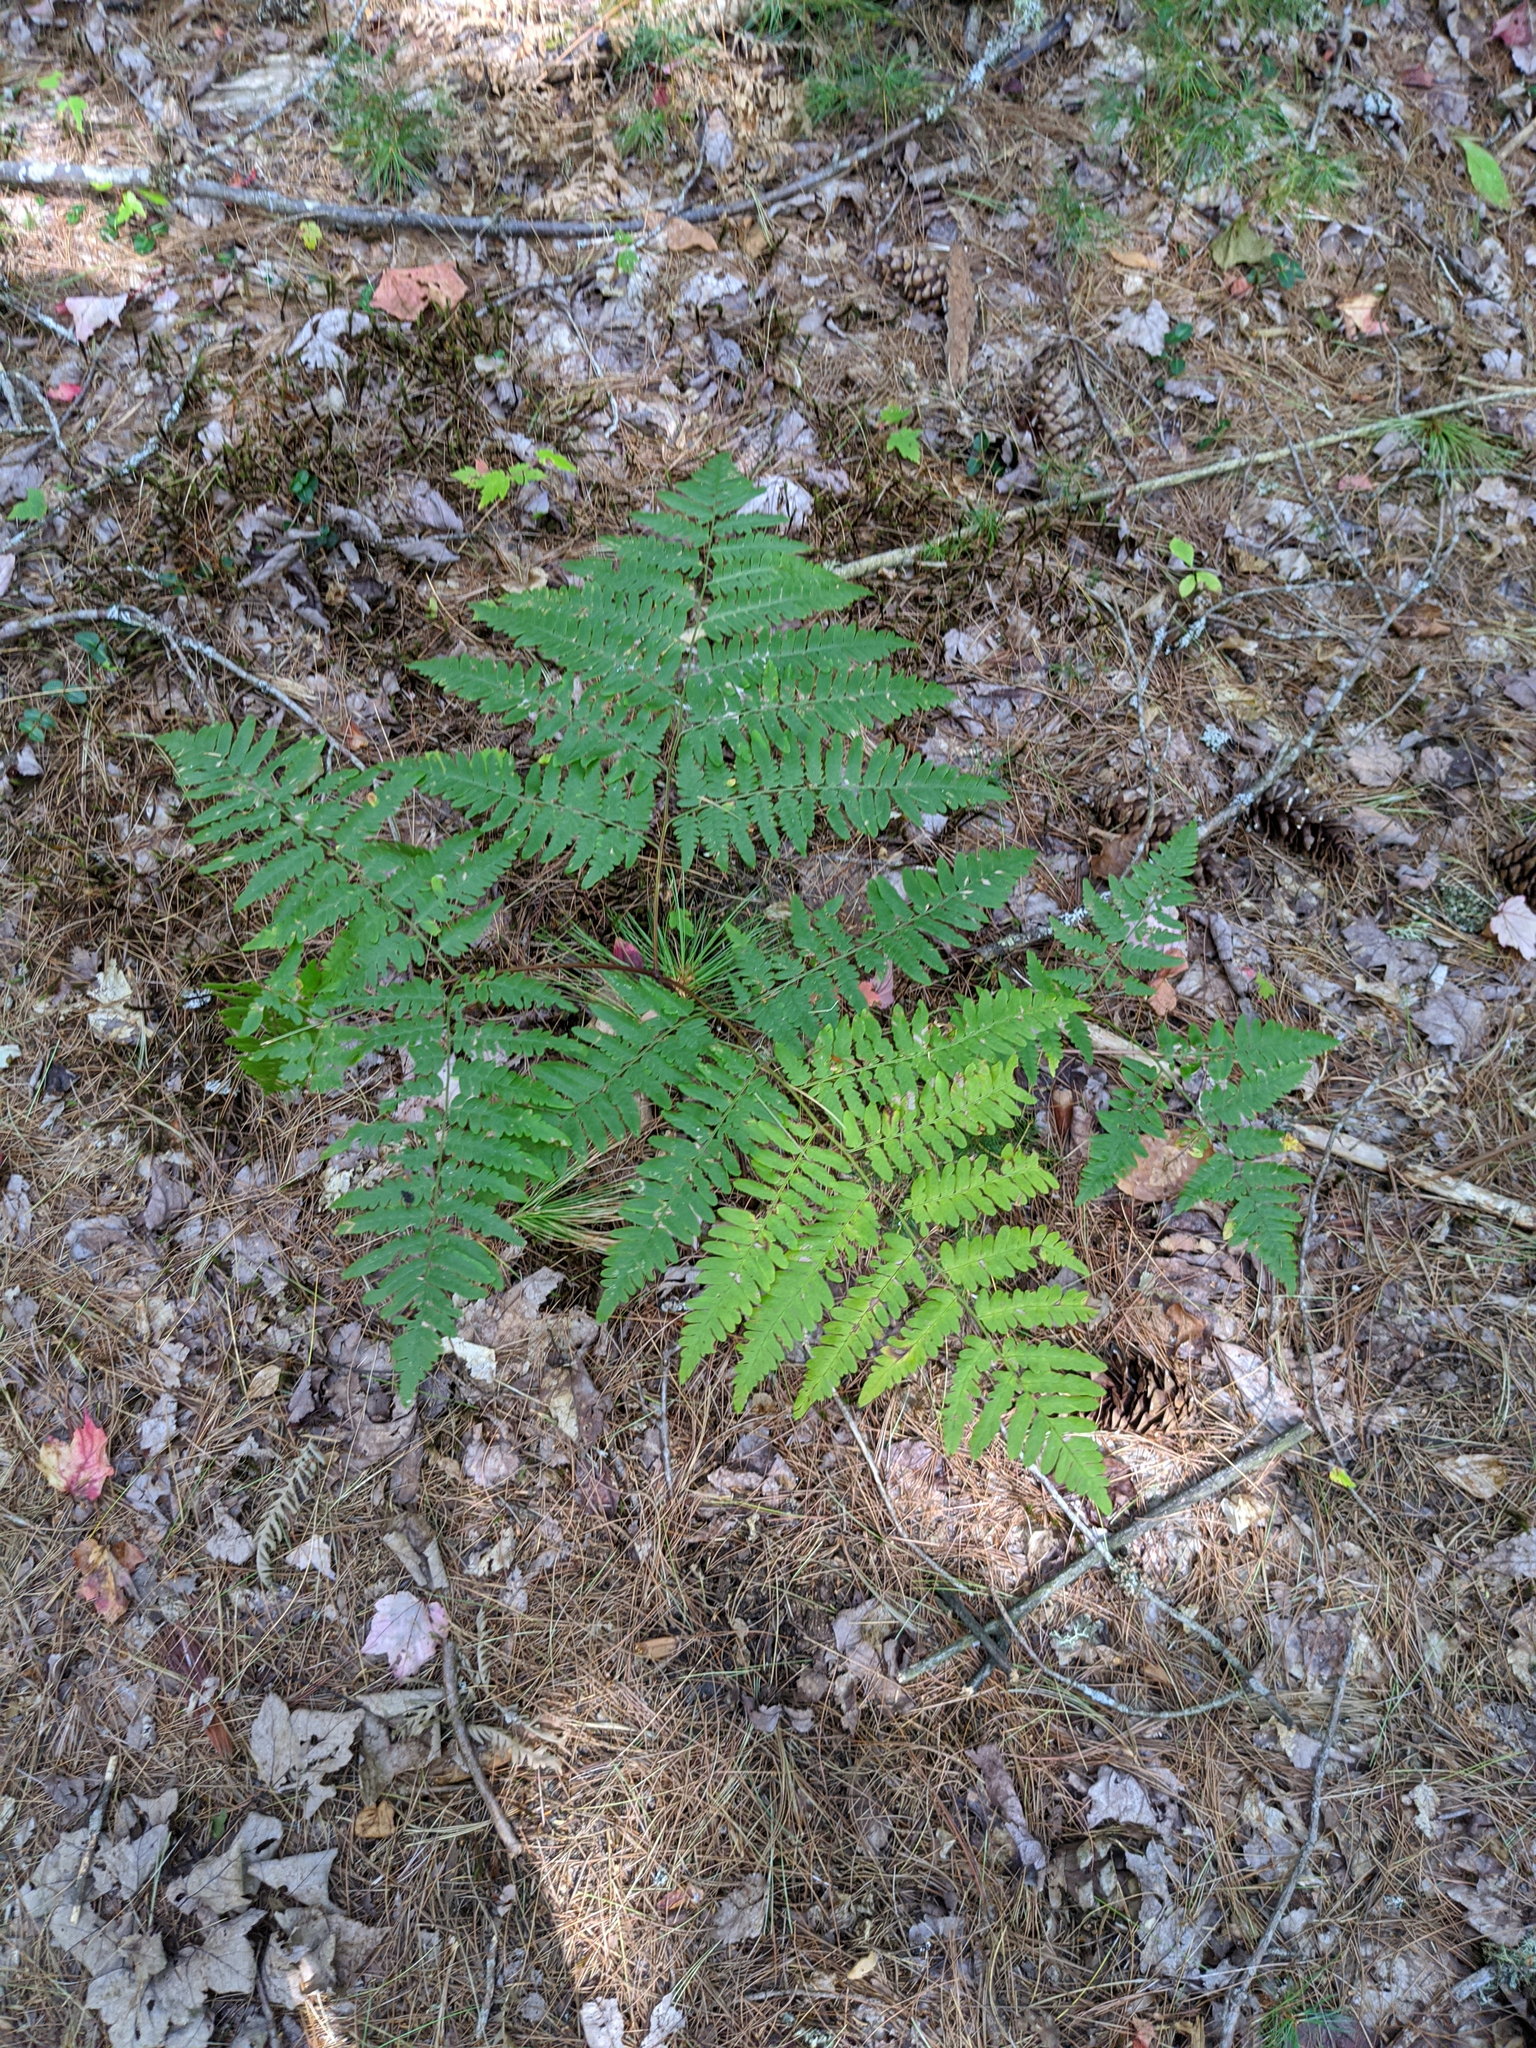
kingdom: Plantae
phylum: Tracheophyta
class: Polypodiopsida
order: Polypodiales
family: Dennstaedtiaceae
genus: Pteridium
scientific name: Pteridium aquilinum
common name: Bracken
